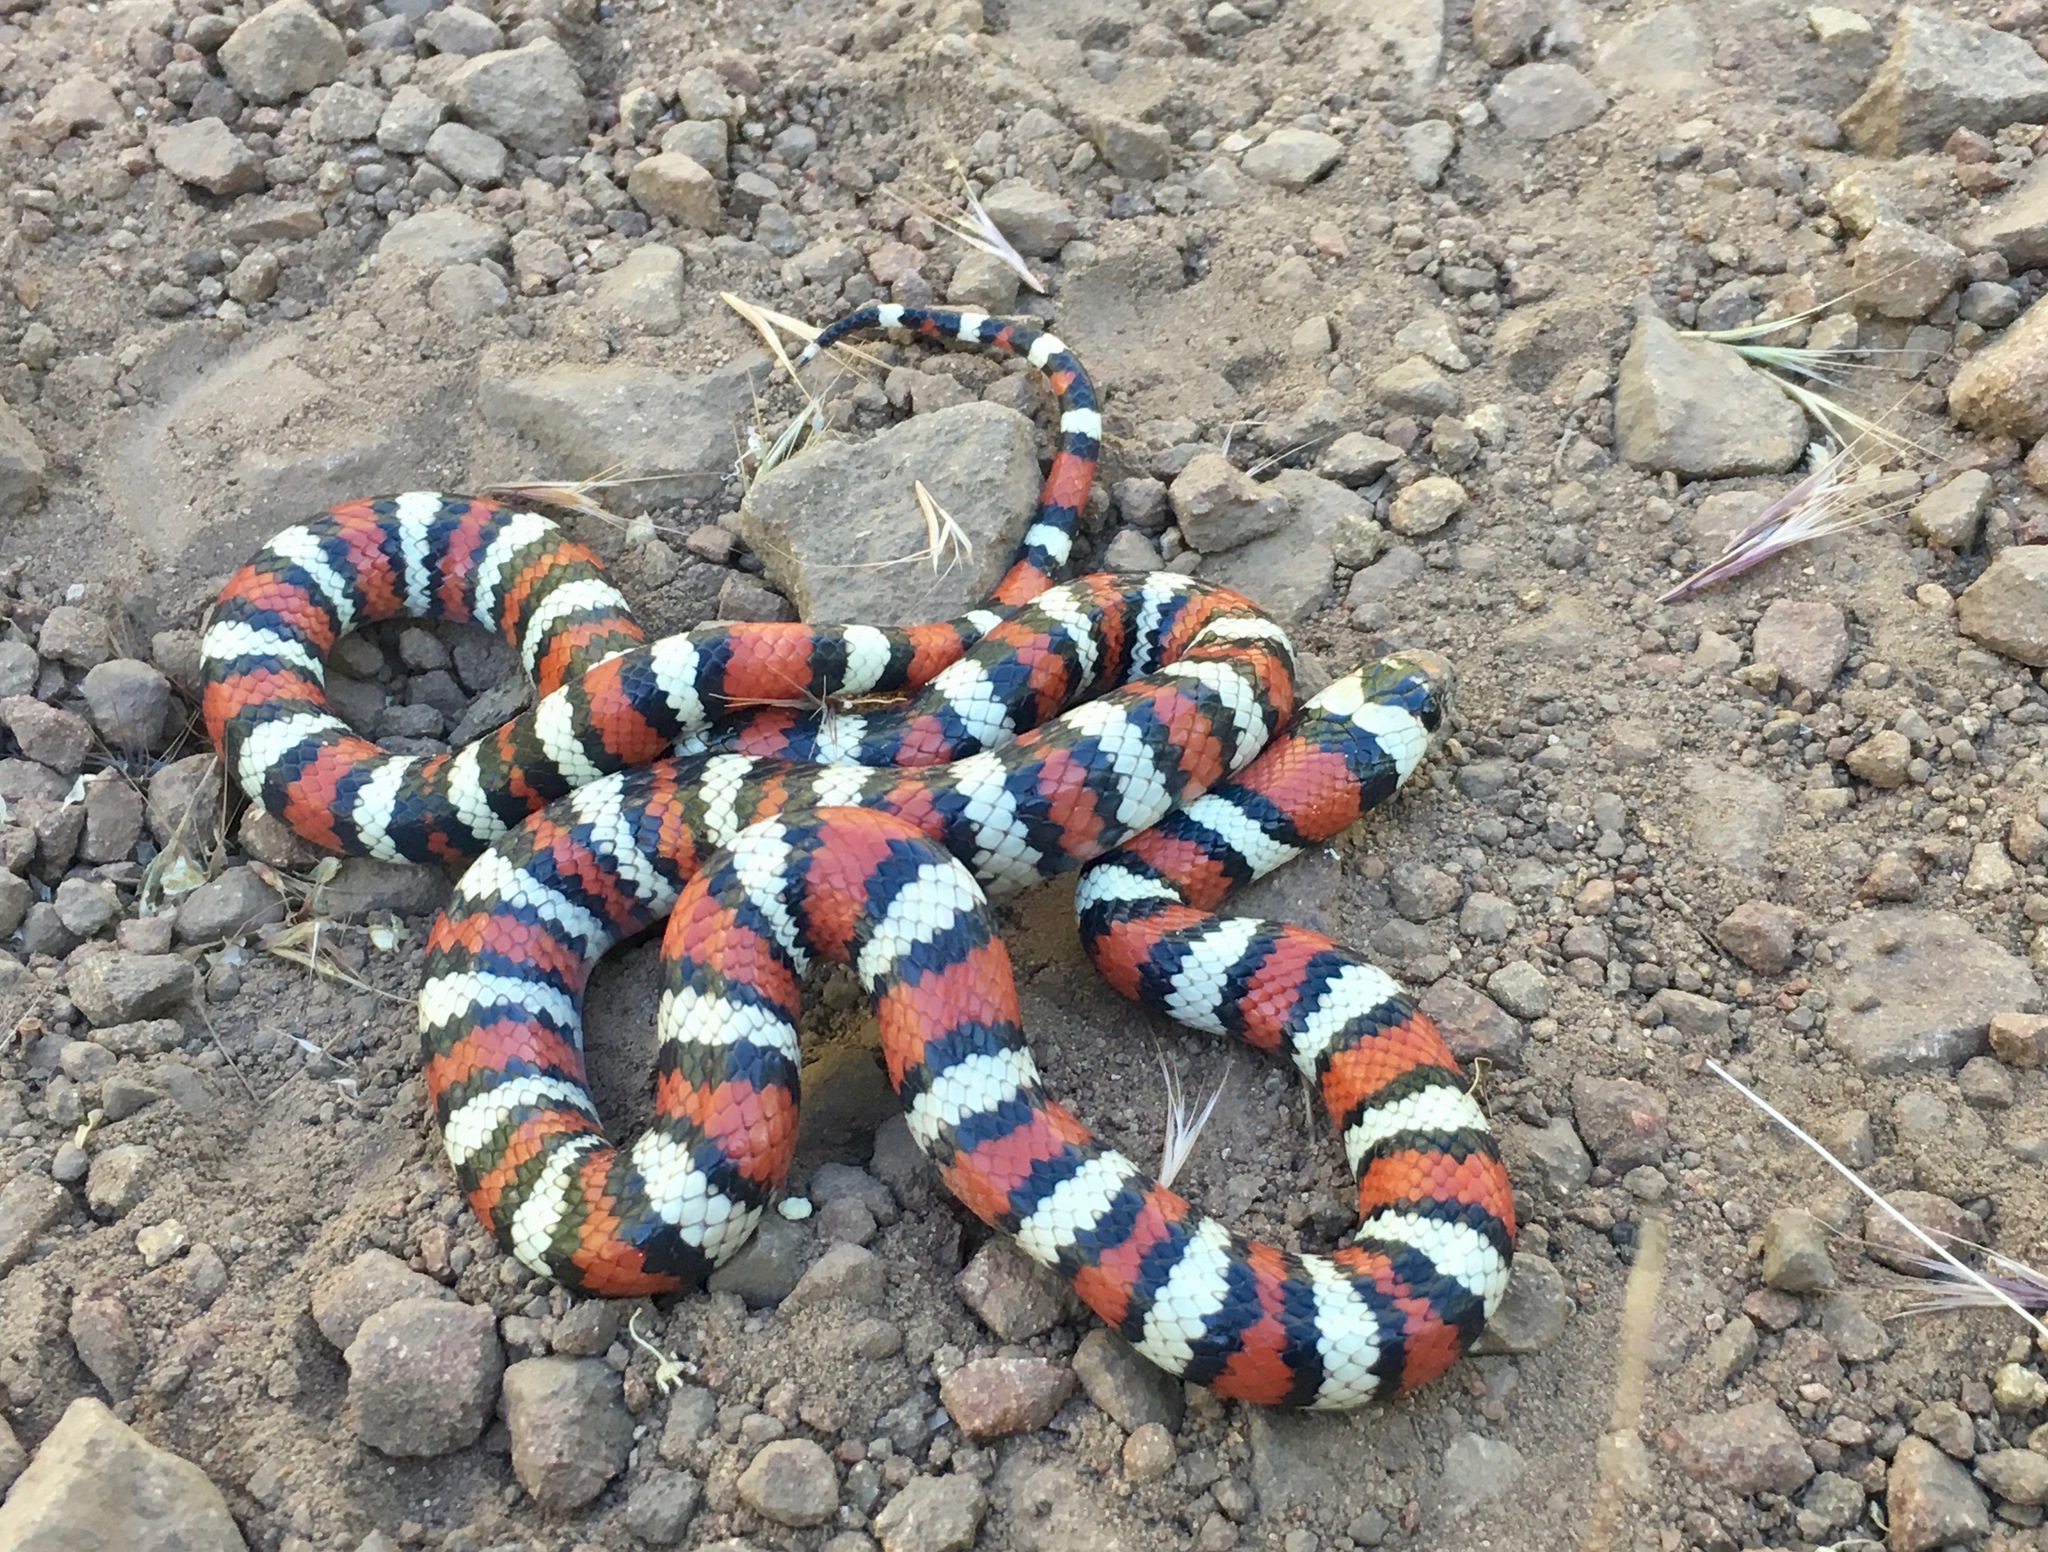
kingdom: Animalia
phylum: Chordata
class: Squamata
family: Colubridae
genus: Lampropeltis
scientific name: Lampropeltis zonata
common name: California mountain kingsnake
